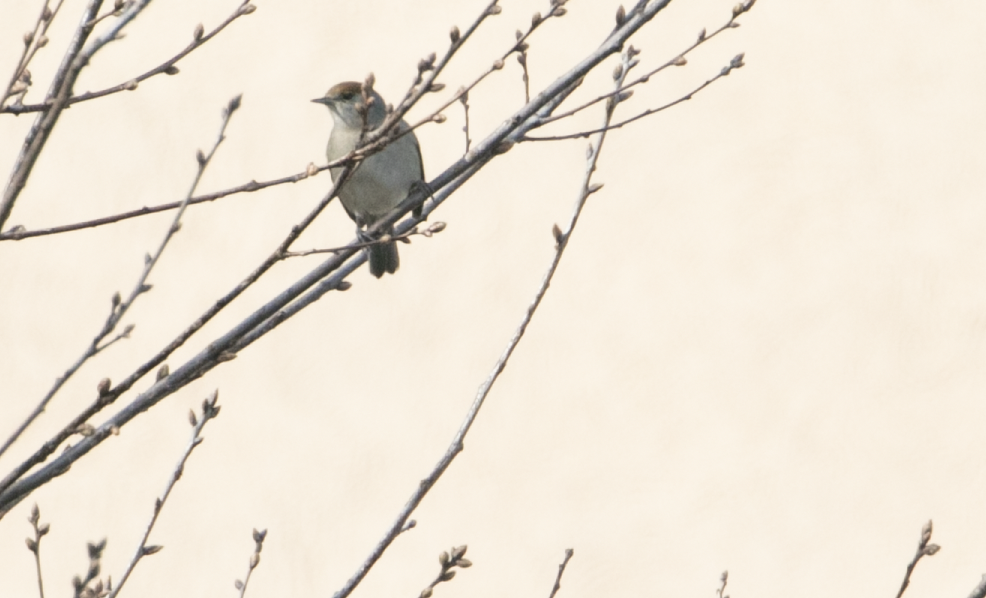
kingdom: Animalia
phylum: Chordata
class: Aves
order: Passeriformes
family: Sylviidae
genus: Sylvia
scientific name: Sylvia atricapilla
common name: Eurasian blackcap
